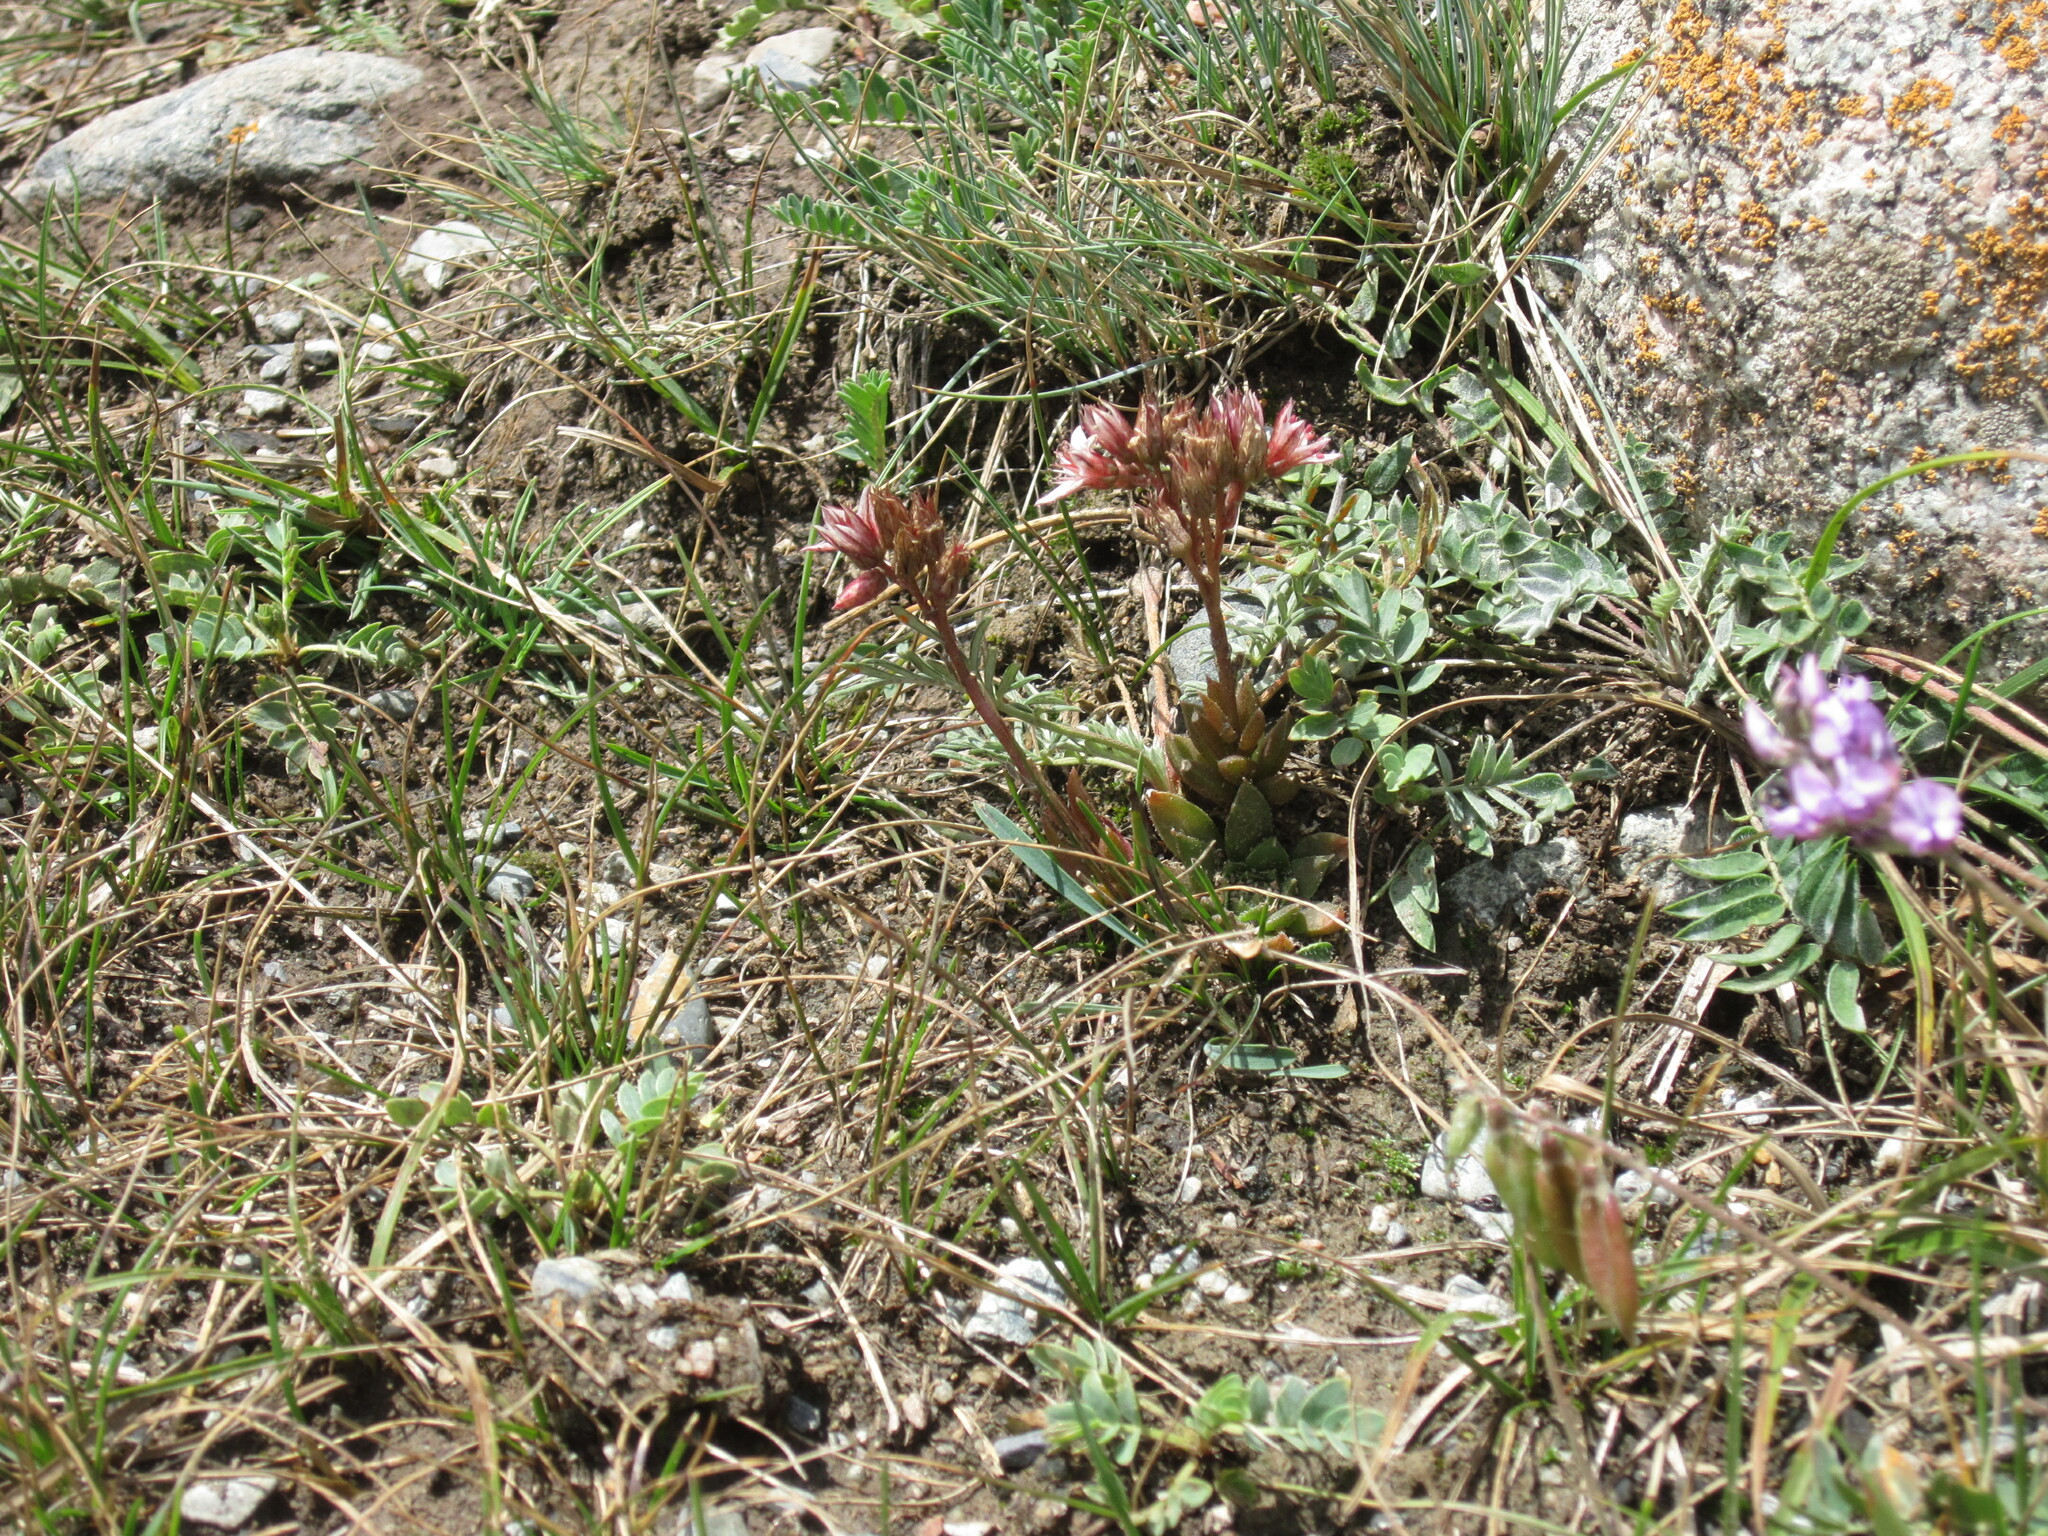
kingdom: Plantae
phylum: Tracheophyta
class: Magnoliopsida
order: Saxifragales
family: Crassulaceae
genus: Rosularia
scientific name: Rosularia alpestris
